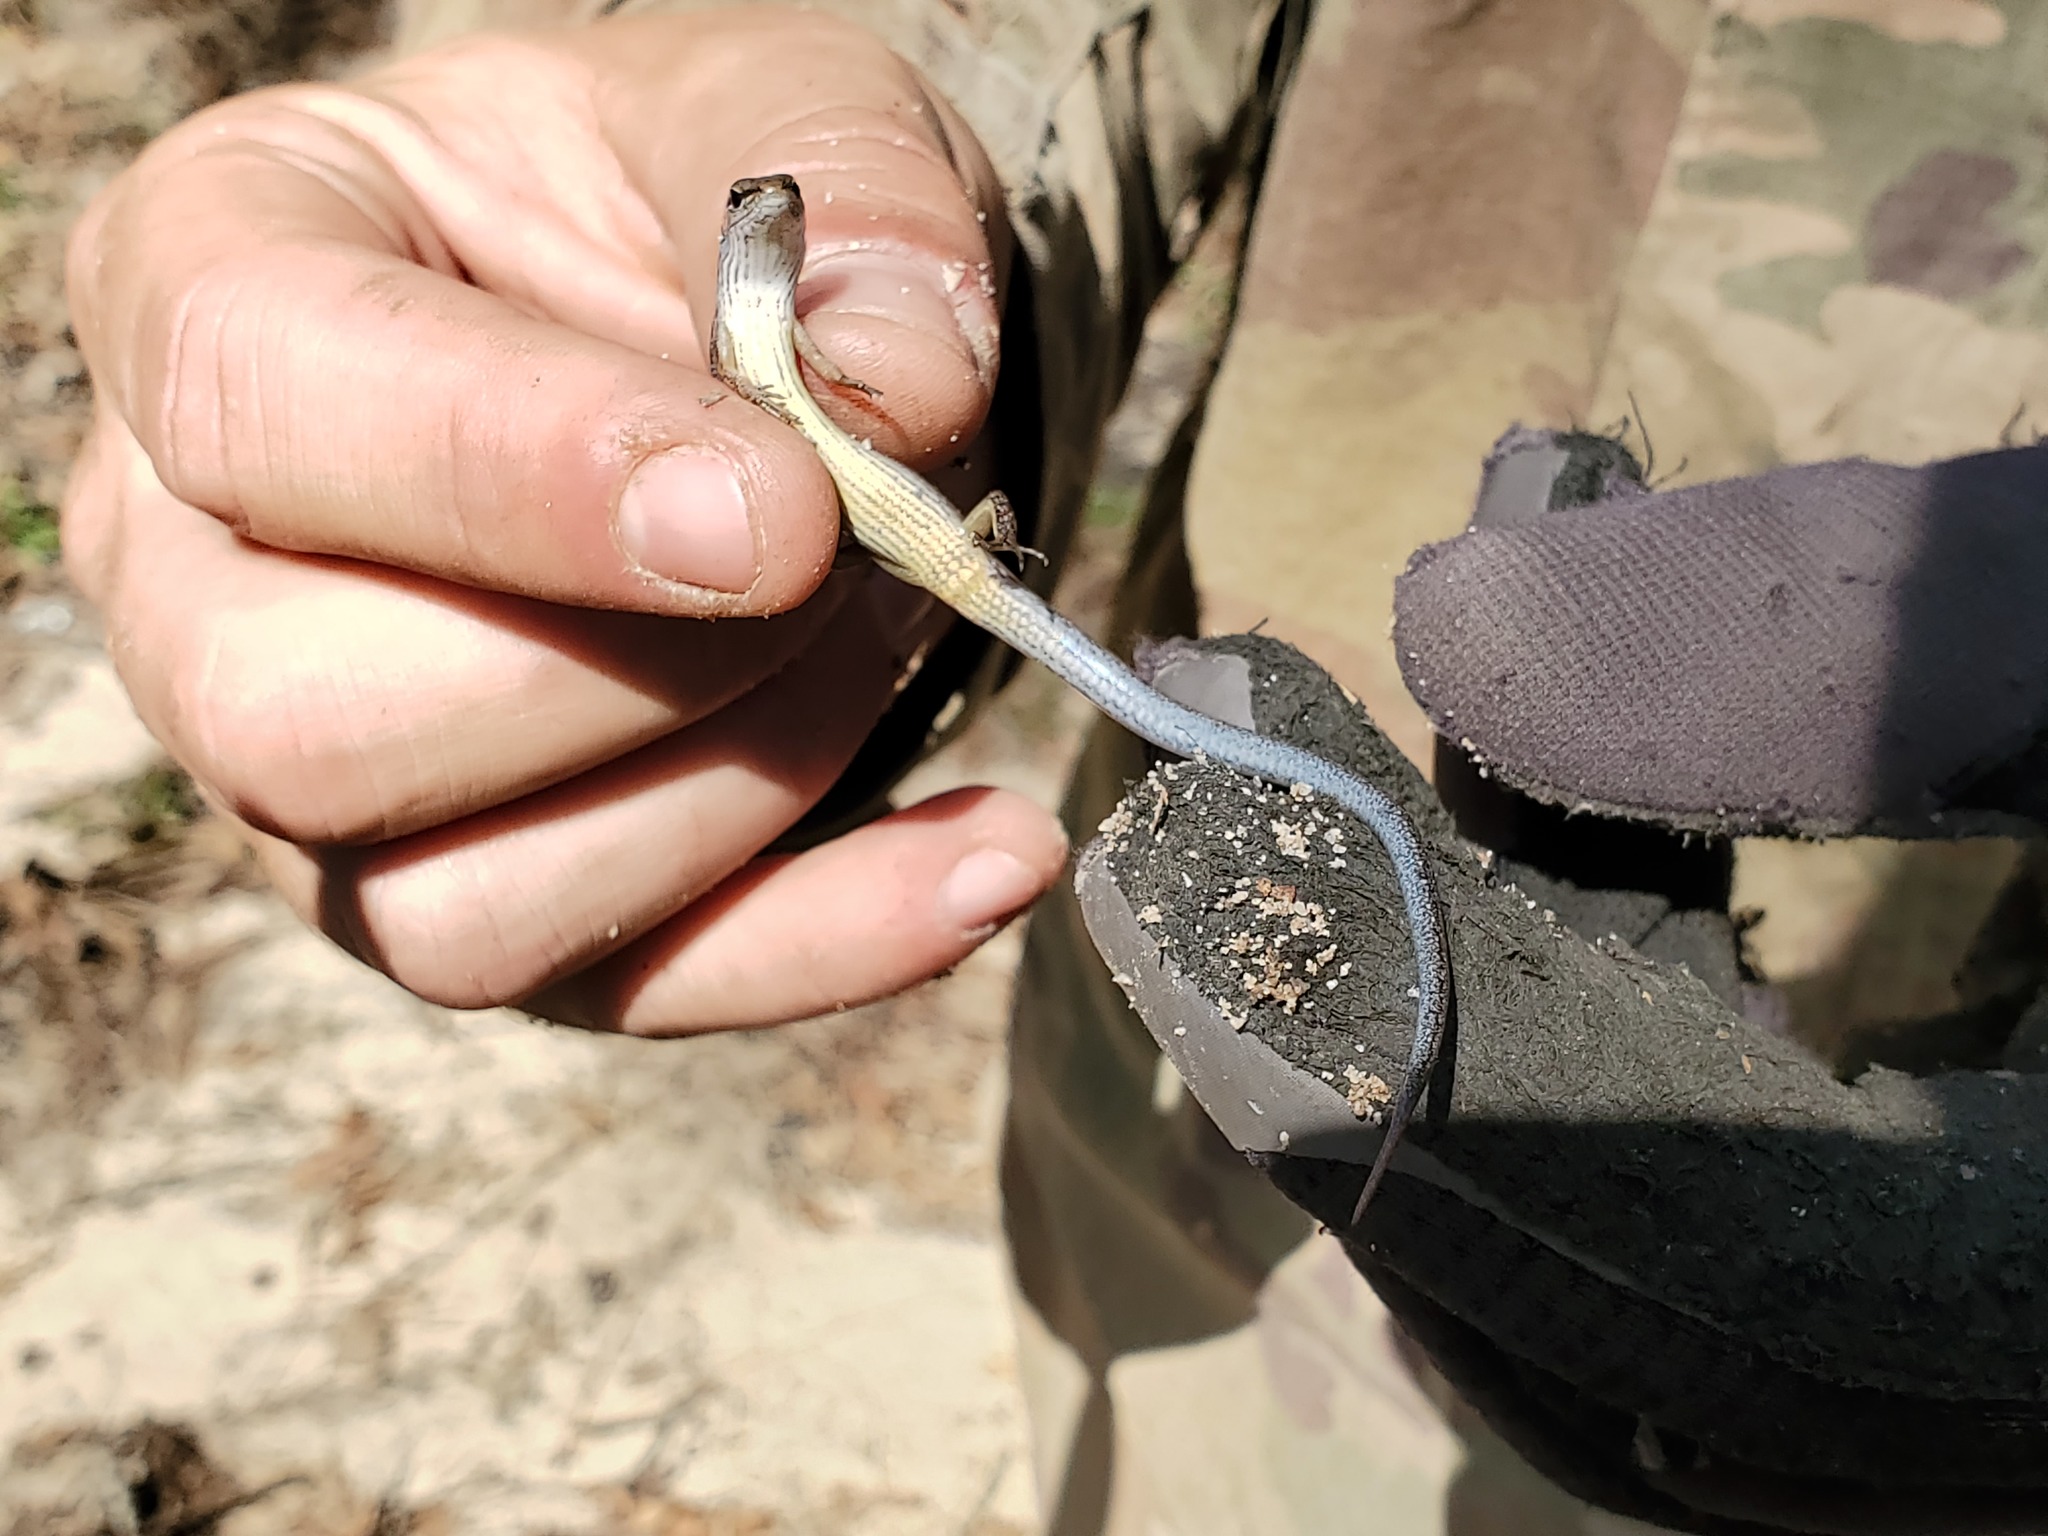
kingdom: Animalia
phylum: Chordata
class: Squamata
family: Scincidae
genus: Scincella
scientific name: Scincella lateralis
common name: Ground skink
